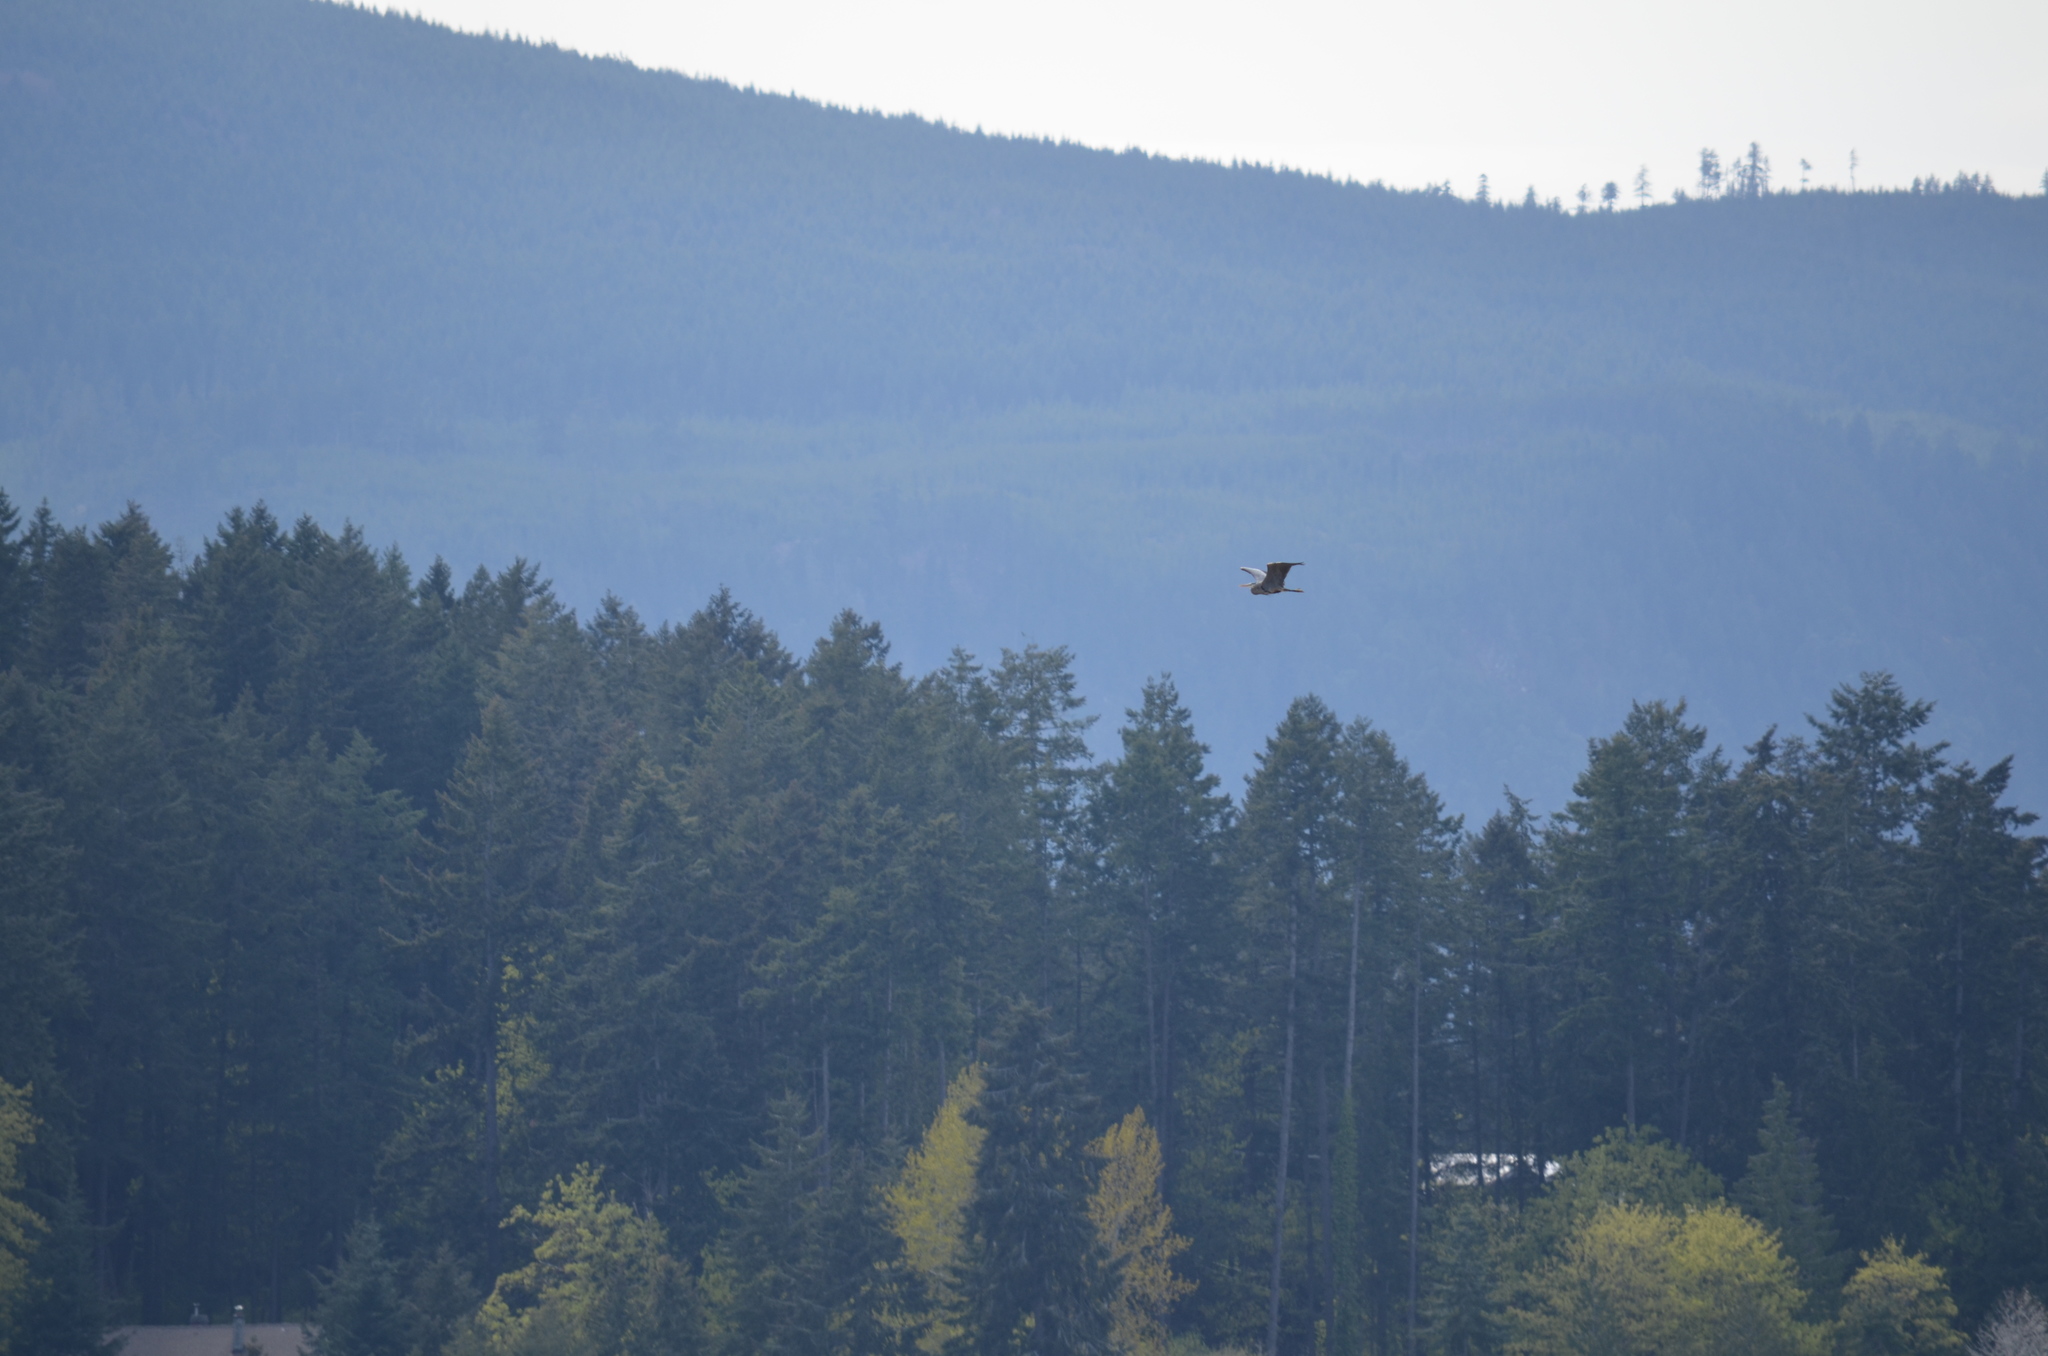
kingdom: Animalia
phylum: Chordata
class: Aves
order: Pelecaniformes
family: Ardeidae
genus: Ardea
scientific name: Ardea herodias
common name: Great blue heron
